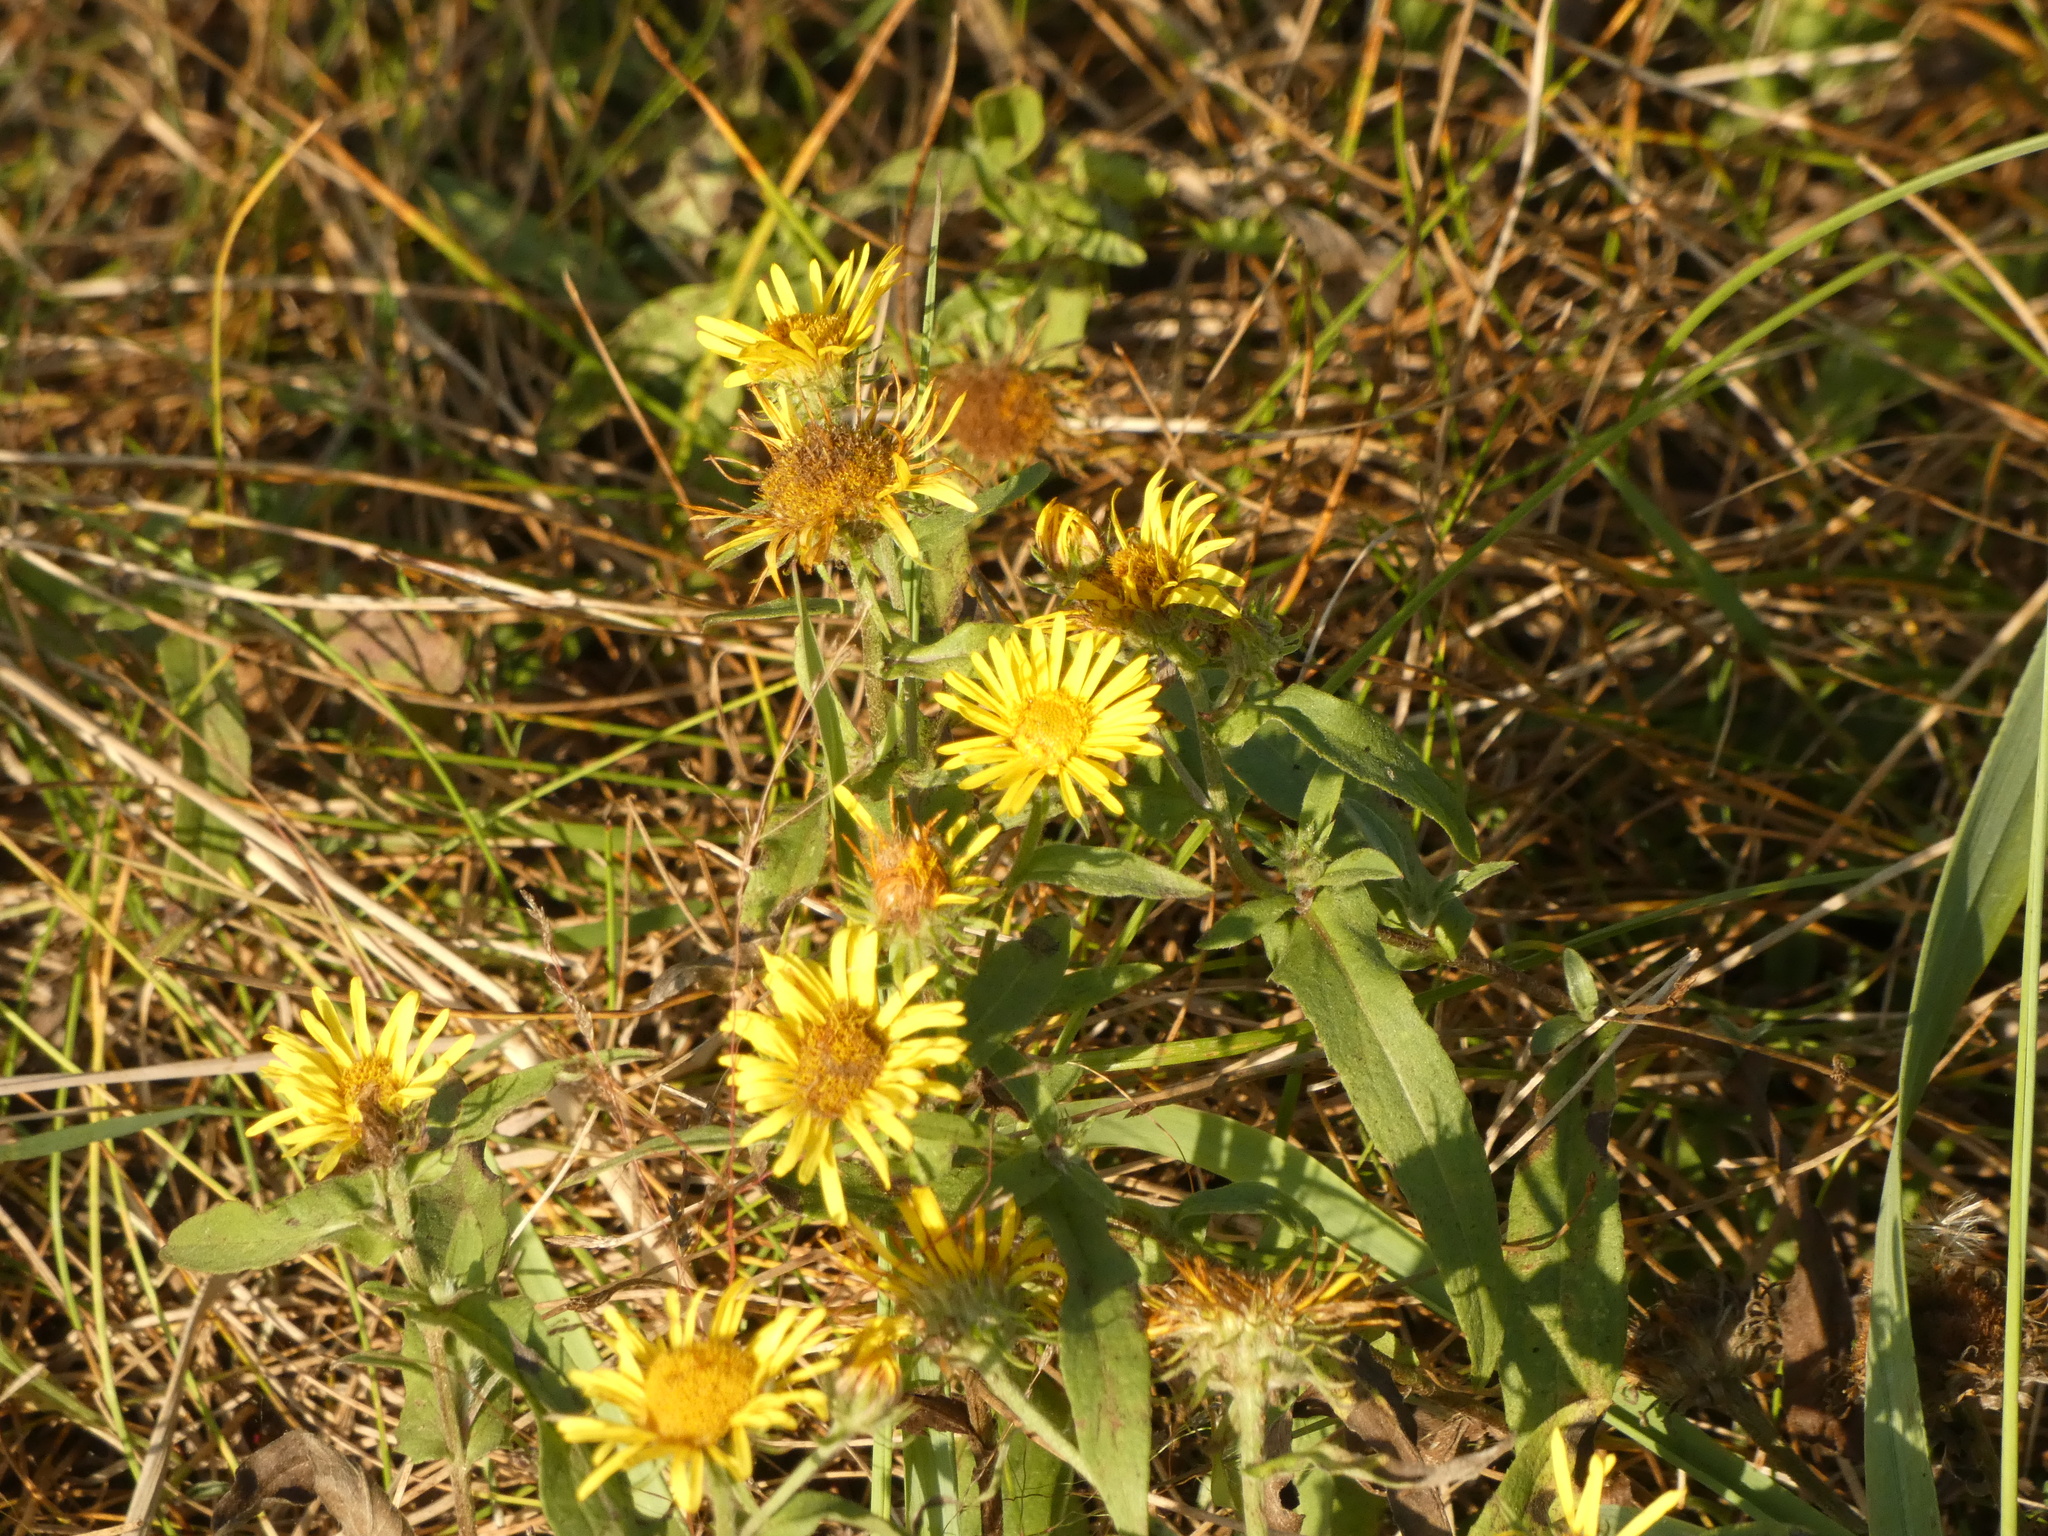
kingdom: Plantae
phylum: Tracheophyta
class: Magnoliopsida
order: Asterales
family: Asteraceae
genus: Pentanema
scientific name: Pentanema britannicum
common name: British elecampane
